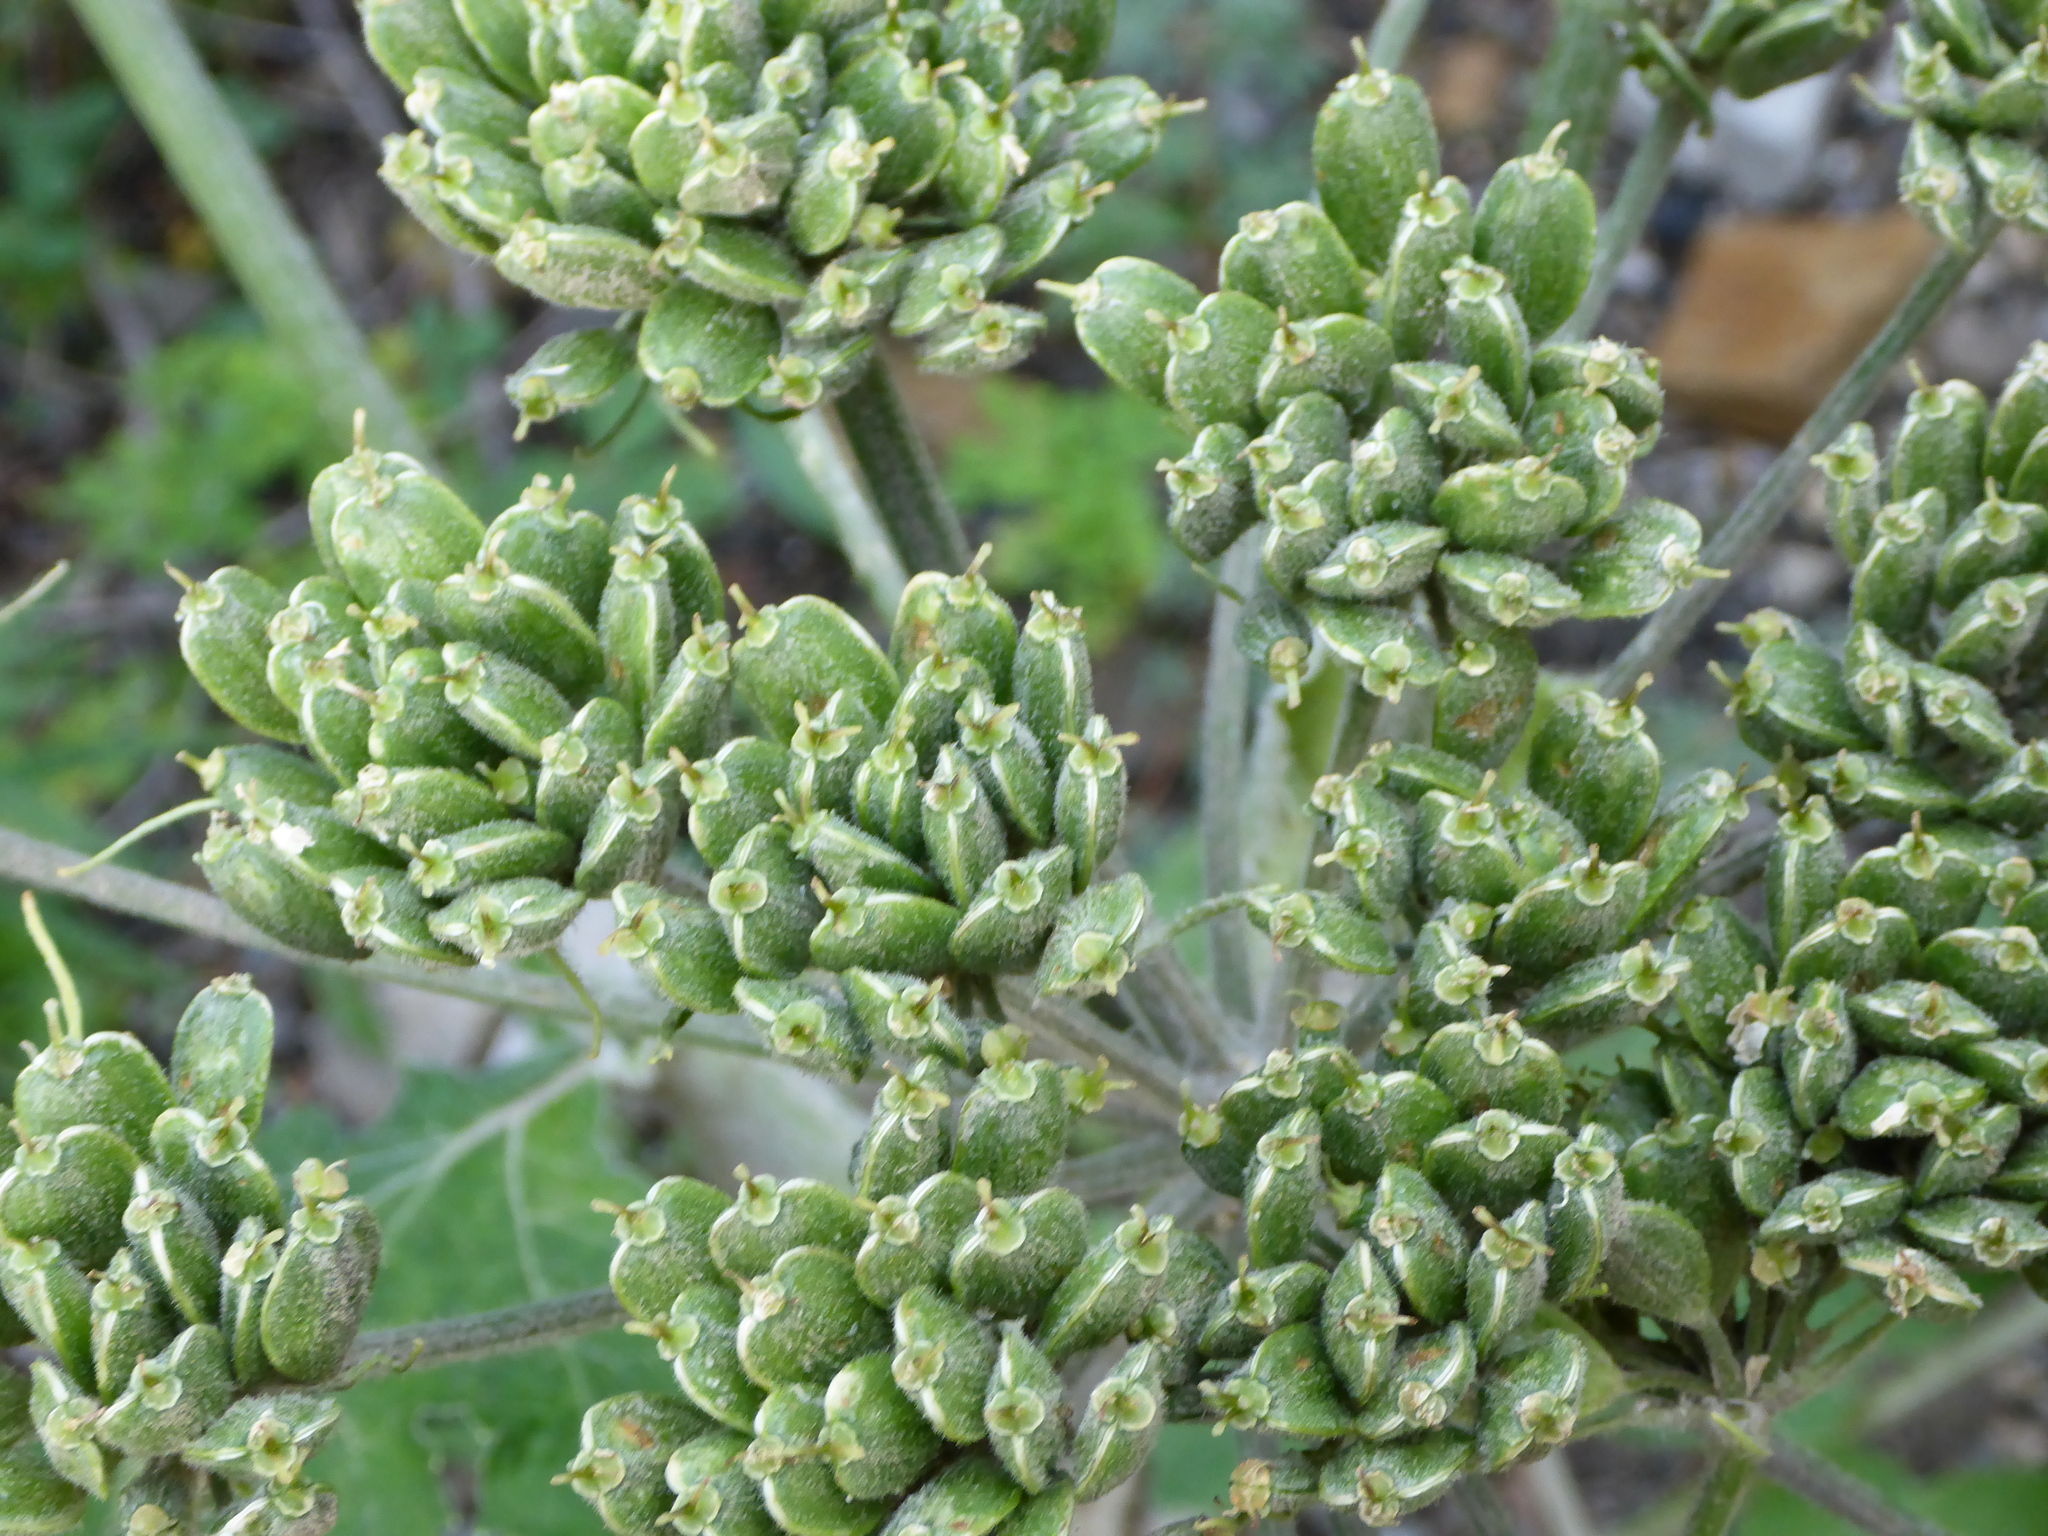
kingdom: Plantae
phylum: Tracheophyta
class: Magnoliopsida
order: Apiales
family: Apiaceae
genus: Heracleum
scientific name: Heracleum maximum
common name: American cow parsnip
